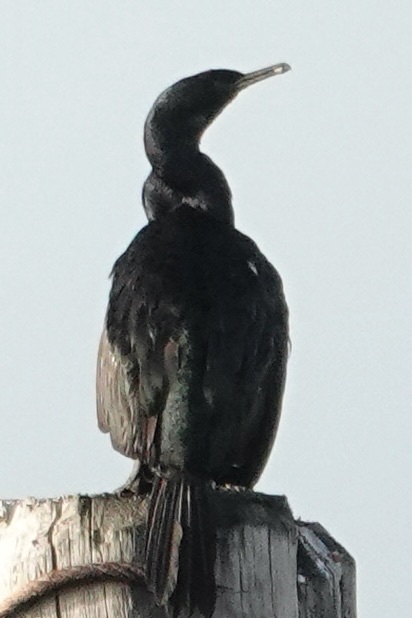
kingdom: Animalia
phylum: Chordata
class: Aves
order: Suliformes
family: Phalacrocoracidae
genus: Phalacrocorax
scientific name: Phalacrocorax pelagicus
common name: Pelagic cormorant
